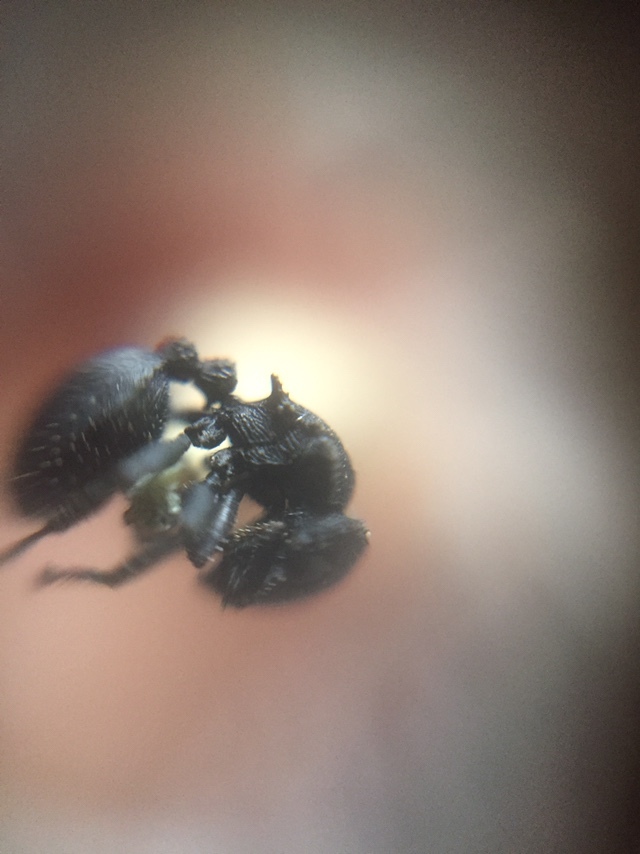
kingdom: Animalia
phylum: Arthropoda
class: Insecta
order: Hymenoptera
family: Formicidae
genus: Cataulacus
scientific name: Cataulacus latus
